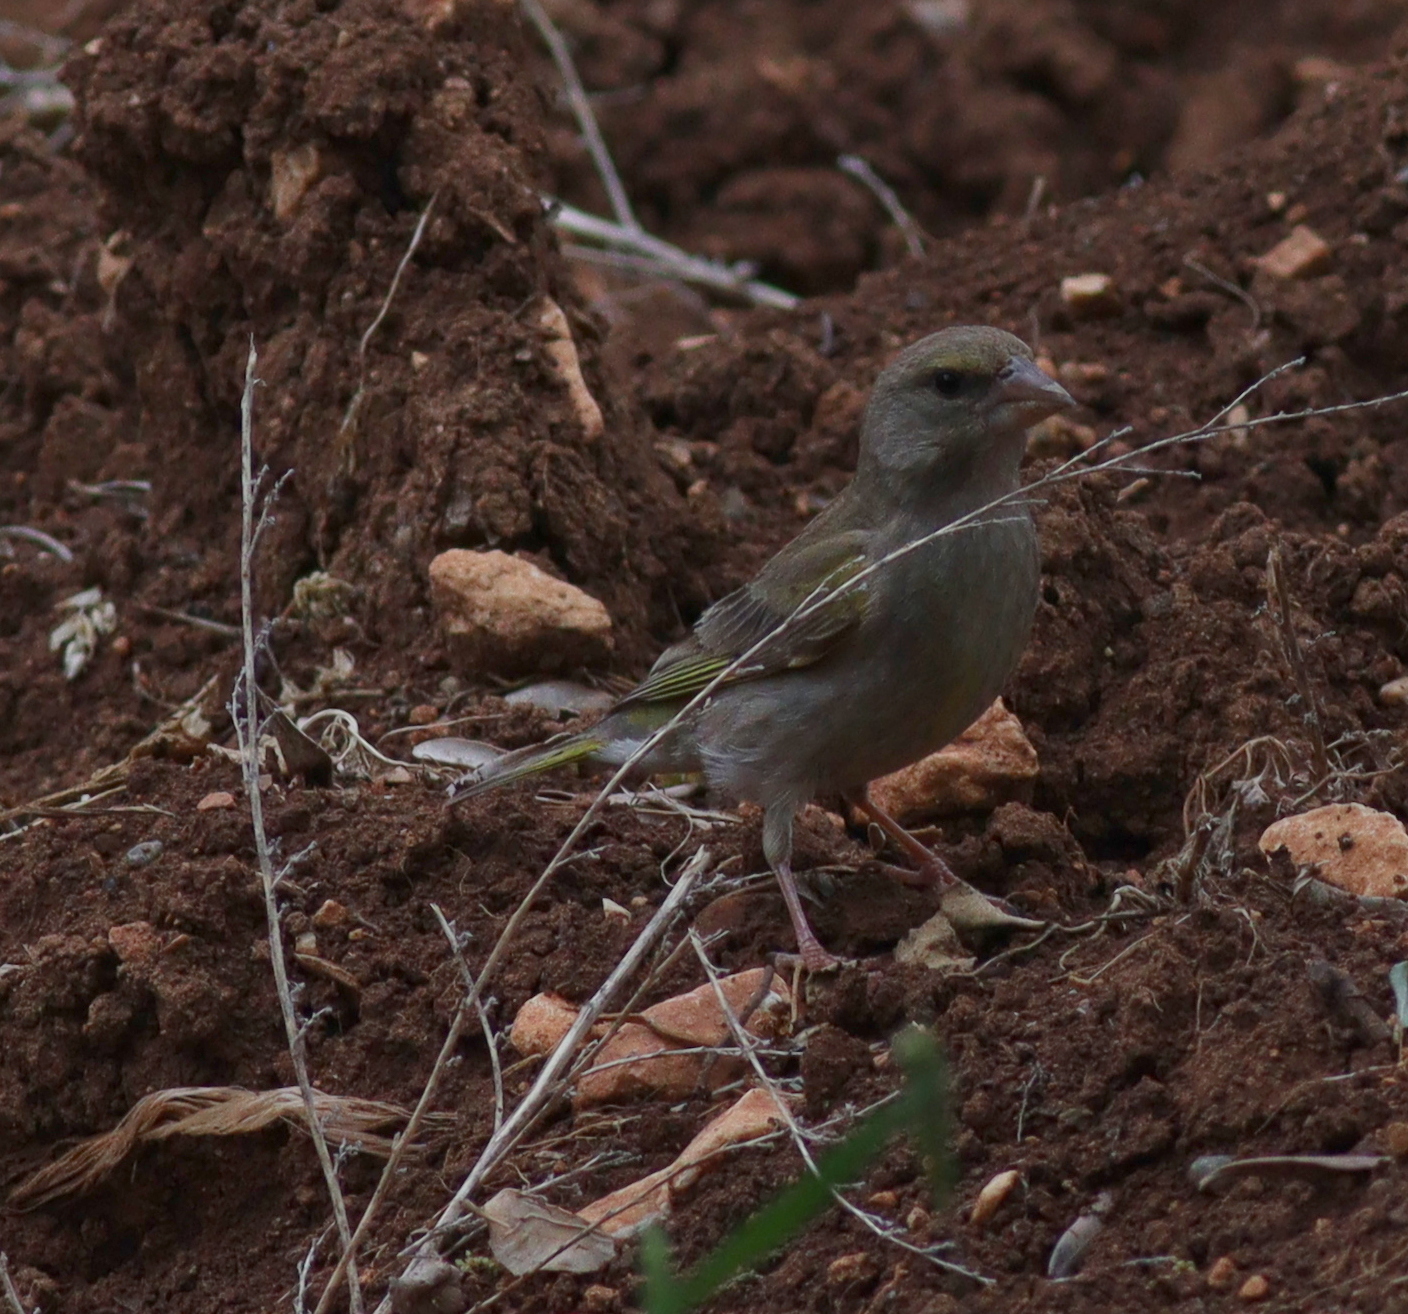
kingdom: Plantae
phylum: Tracheophyta
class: Liliopsida
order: Poales
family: Poaceae
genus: Chloris
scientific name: Chloris chloris
